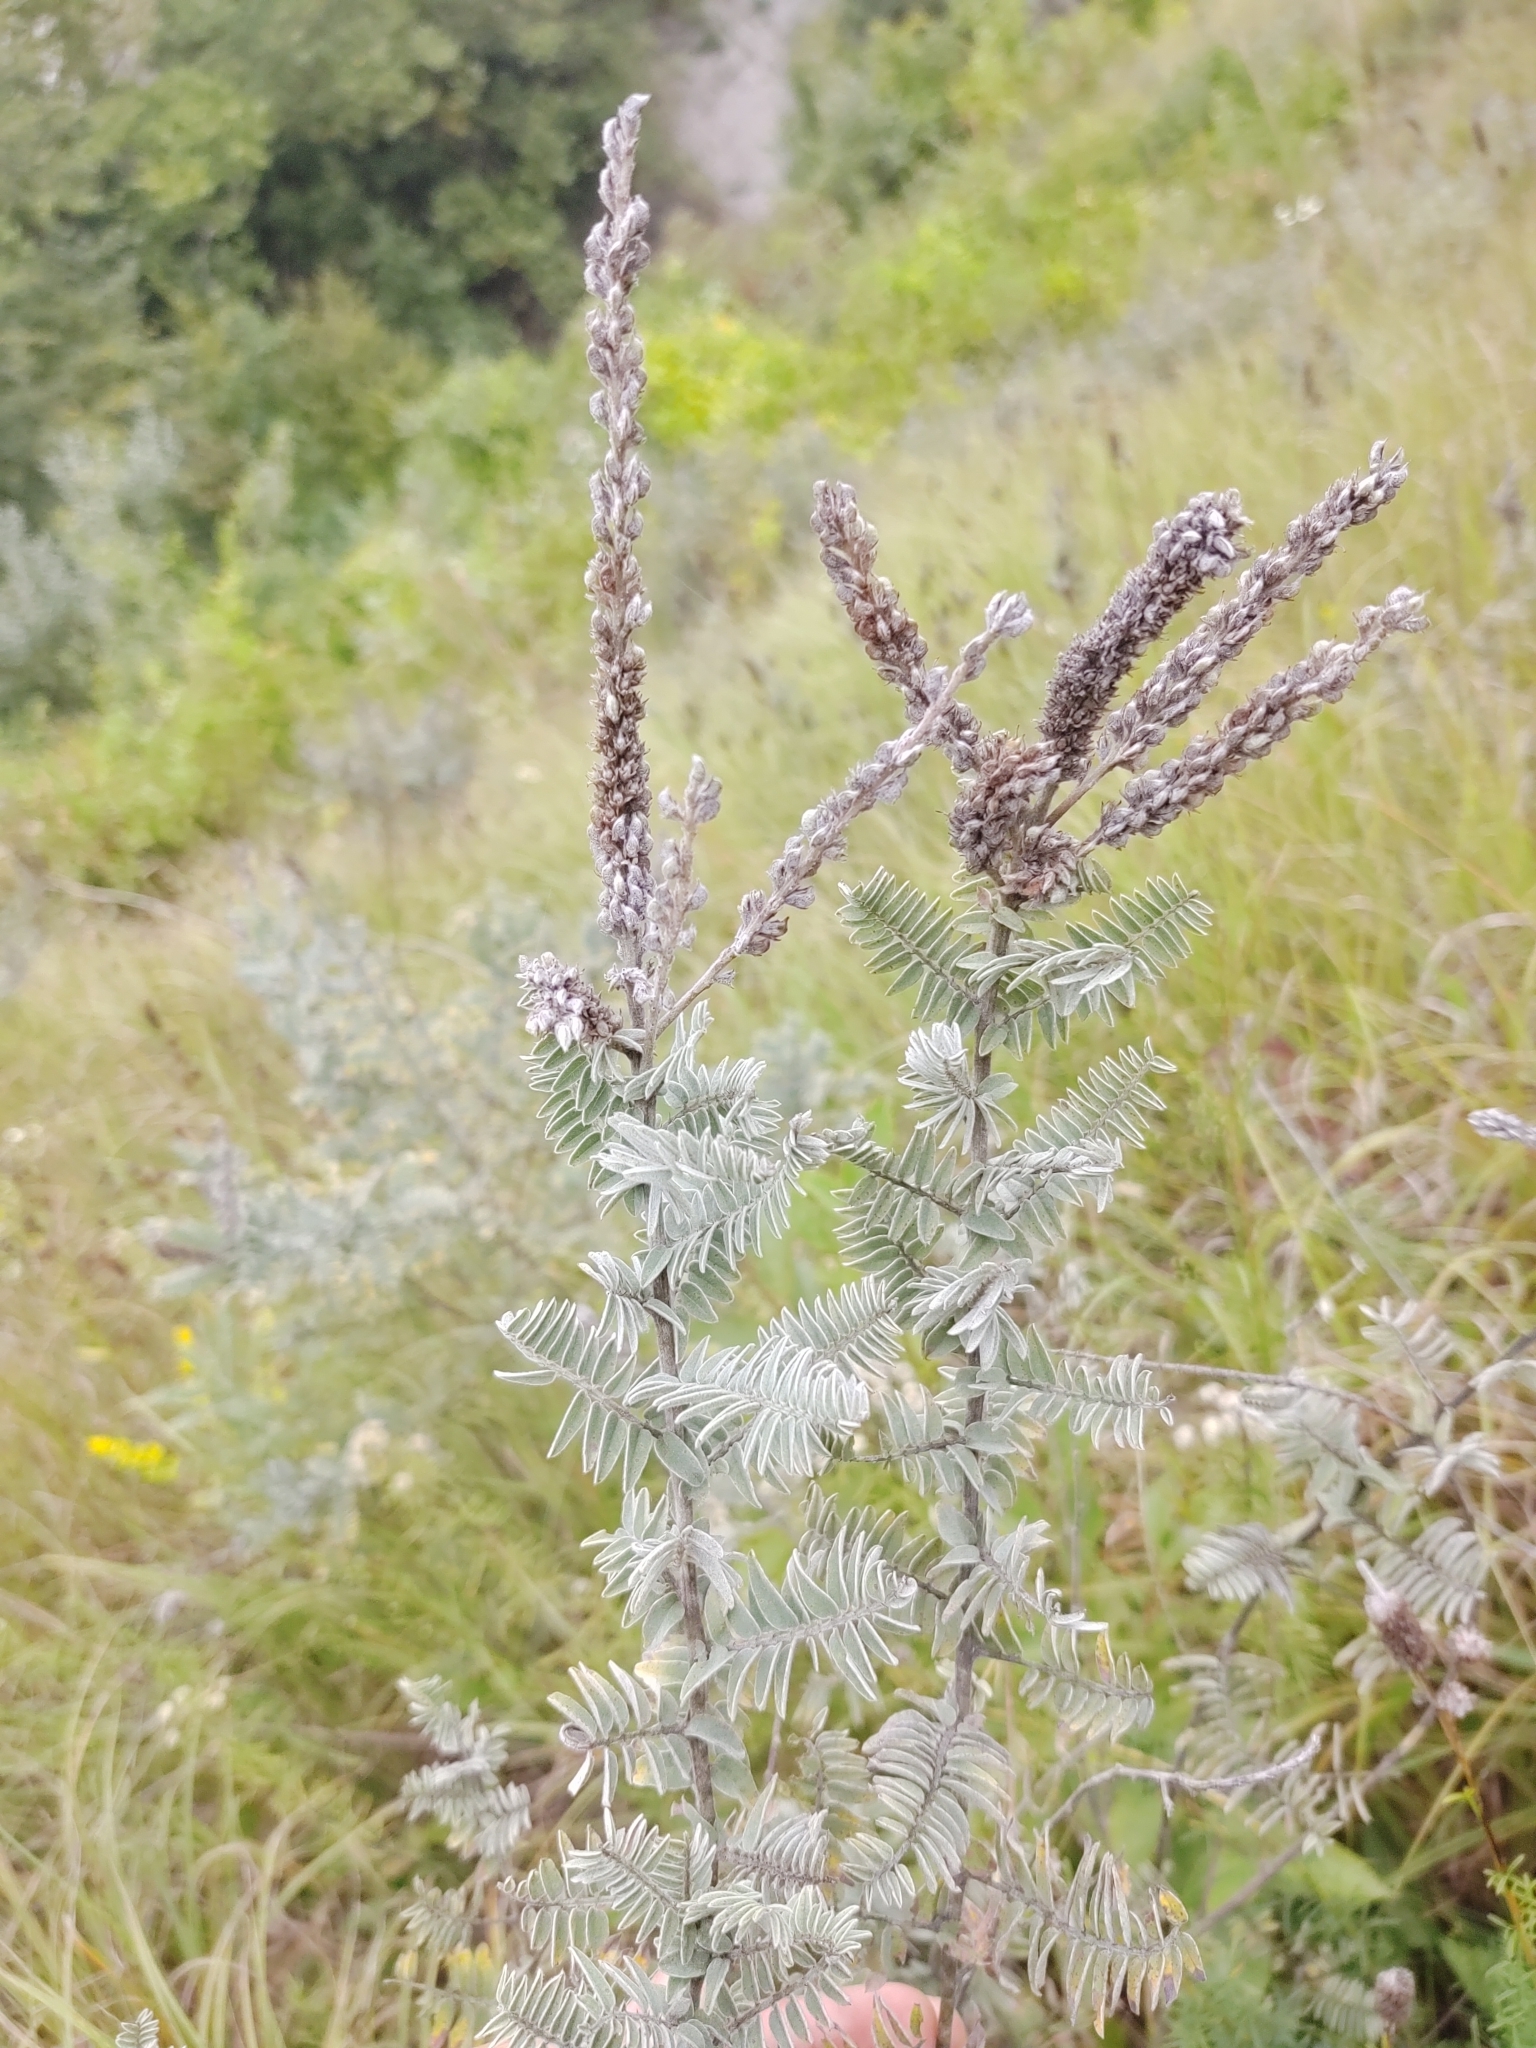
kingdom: Plantae
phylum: Tracheophyta
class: Magnoliopsida
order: Fabales
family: Fabaceae
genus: Amorpha
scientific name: Amorpha canescens
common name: Leadplant
